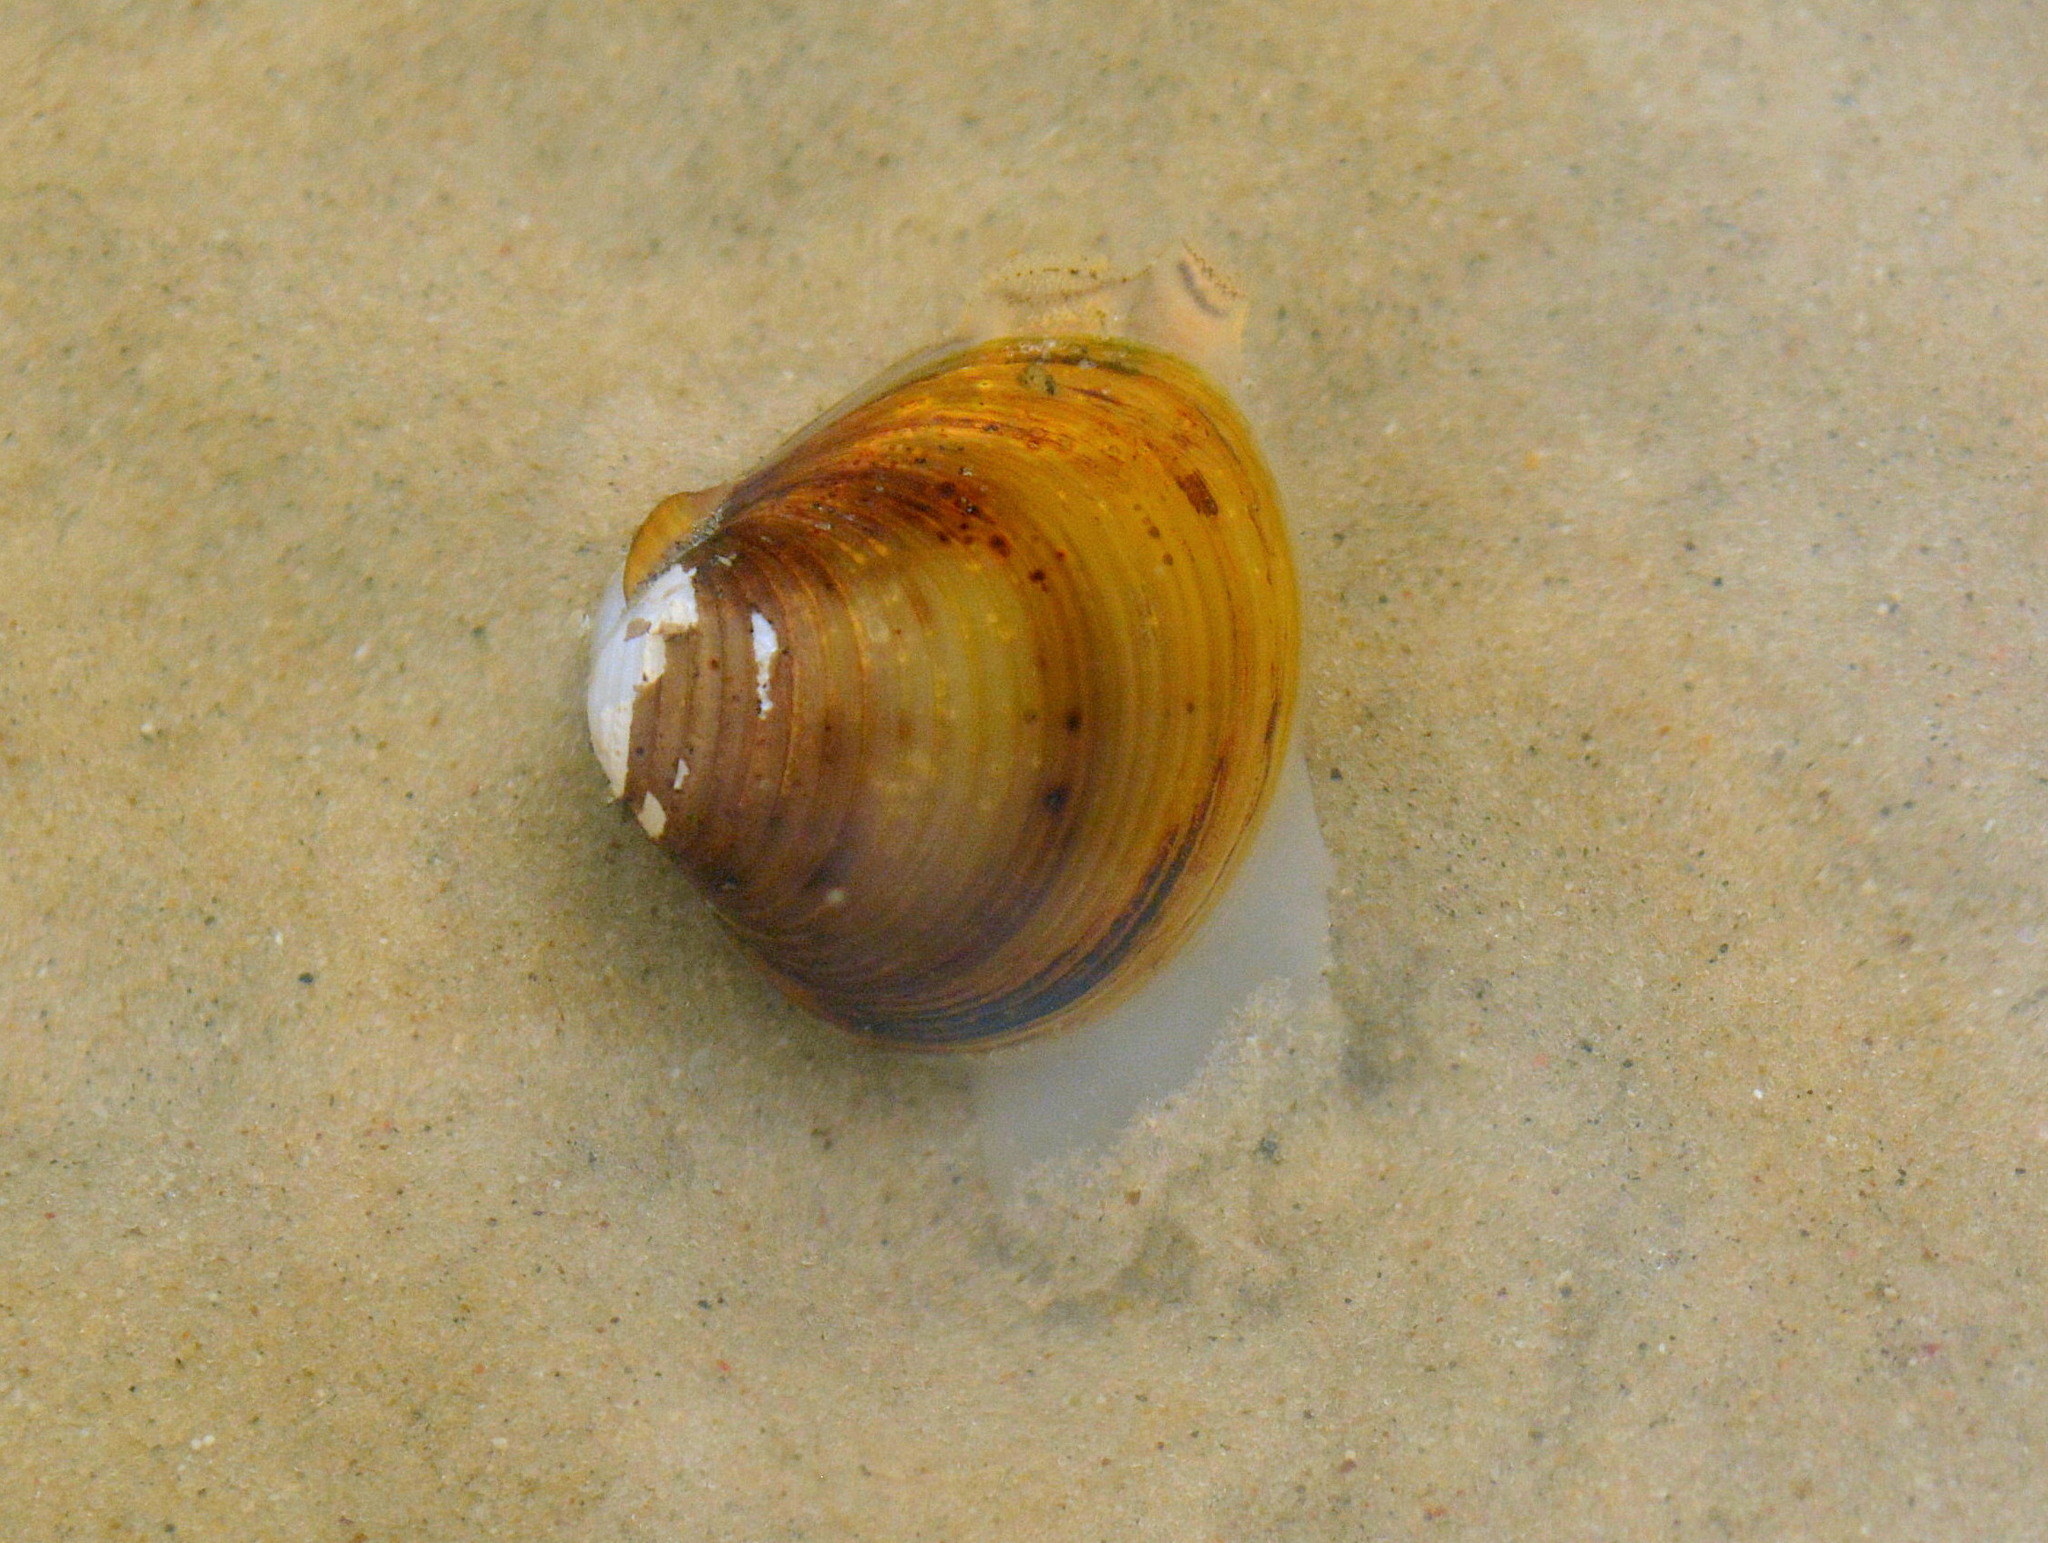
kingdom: Animalia
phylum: Mollusca
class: Bivalvia
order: Venerida
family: Cyrenidae
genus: Corbicula
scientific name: Corbicula fluminea
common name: Asian clam
